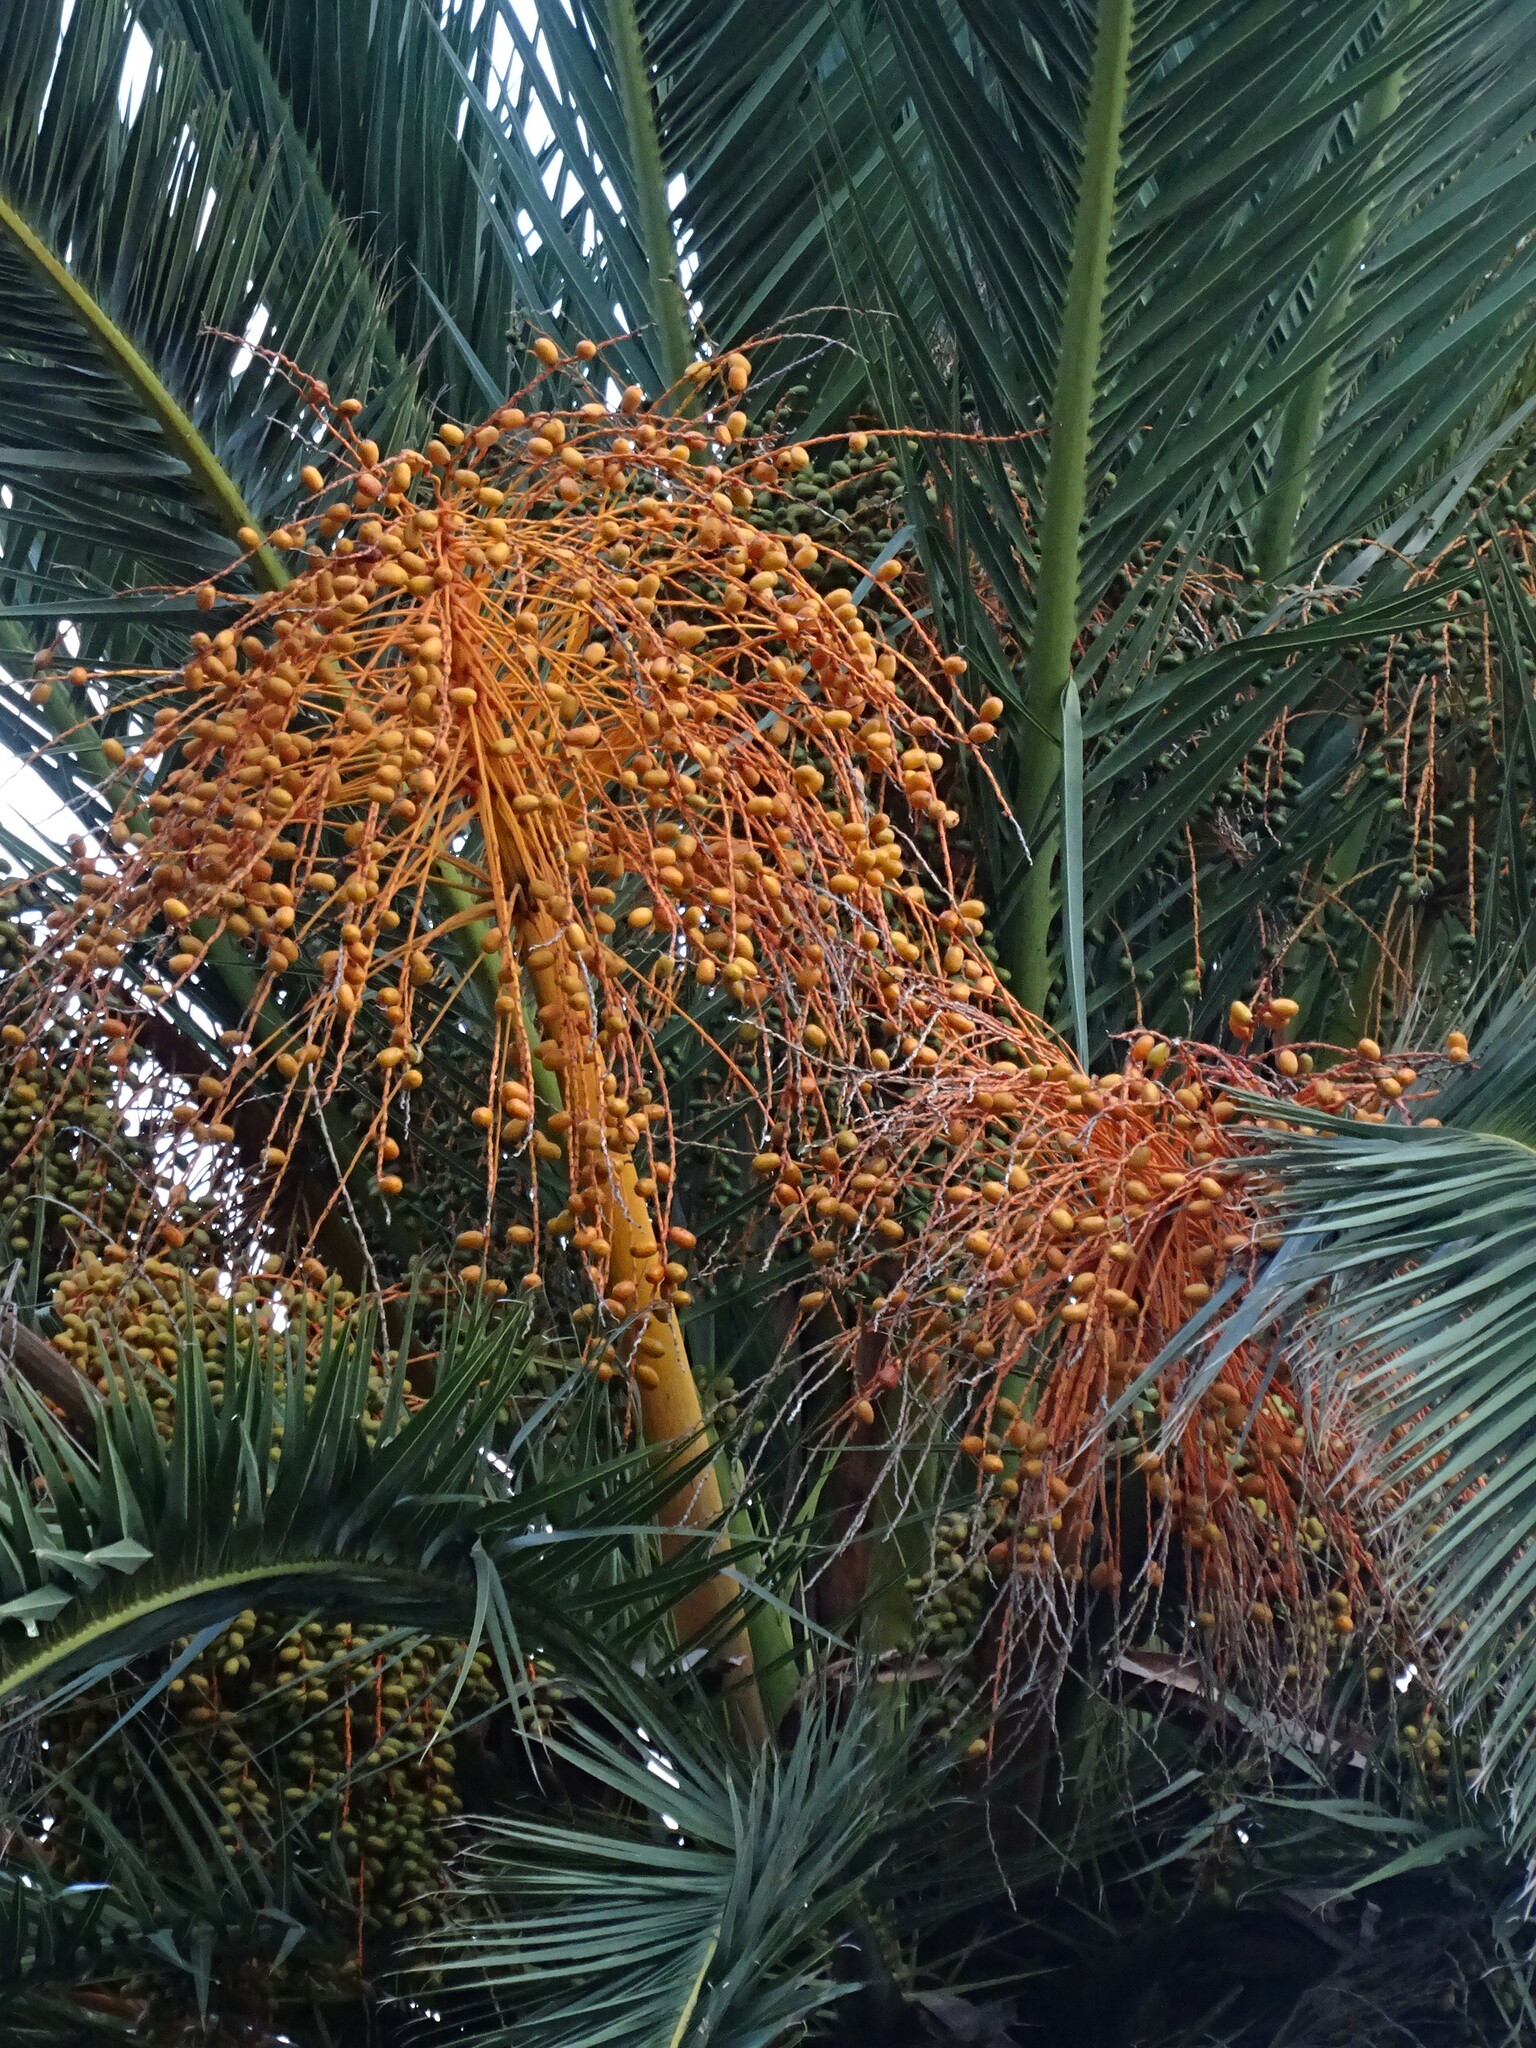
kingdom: Plantae
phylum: Tracheophyta
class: Liliopsida
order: Arecales
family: Arecaceae
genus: Phoenix
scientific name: Phoenix canariensis
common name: Canary island date palm
